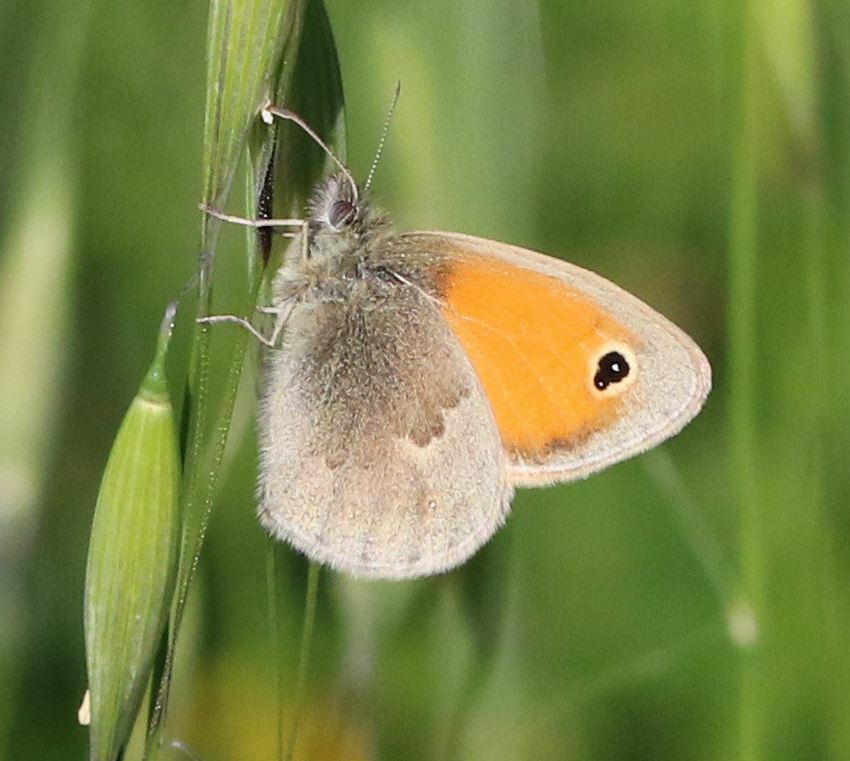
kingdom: Animalia
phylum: Arthropoda
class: Insecta
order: Lepidoptera
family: Nymphalidae
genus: Coenonympha
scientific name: Coenonympha pamphilus
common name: Small heath
